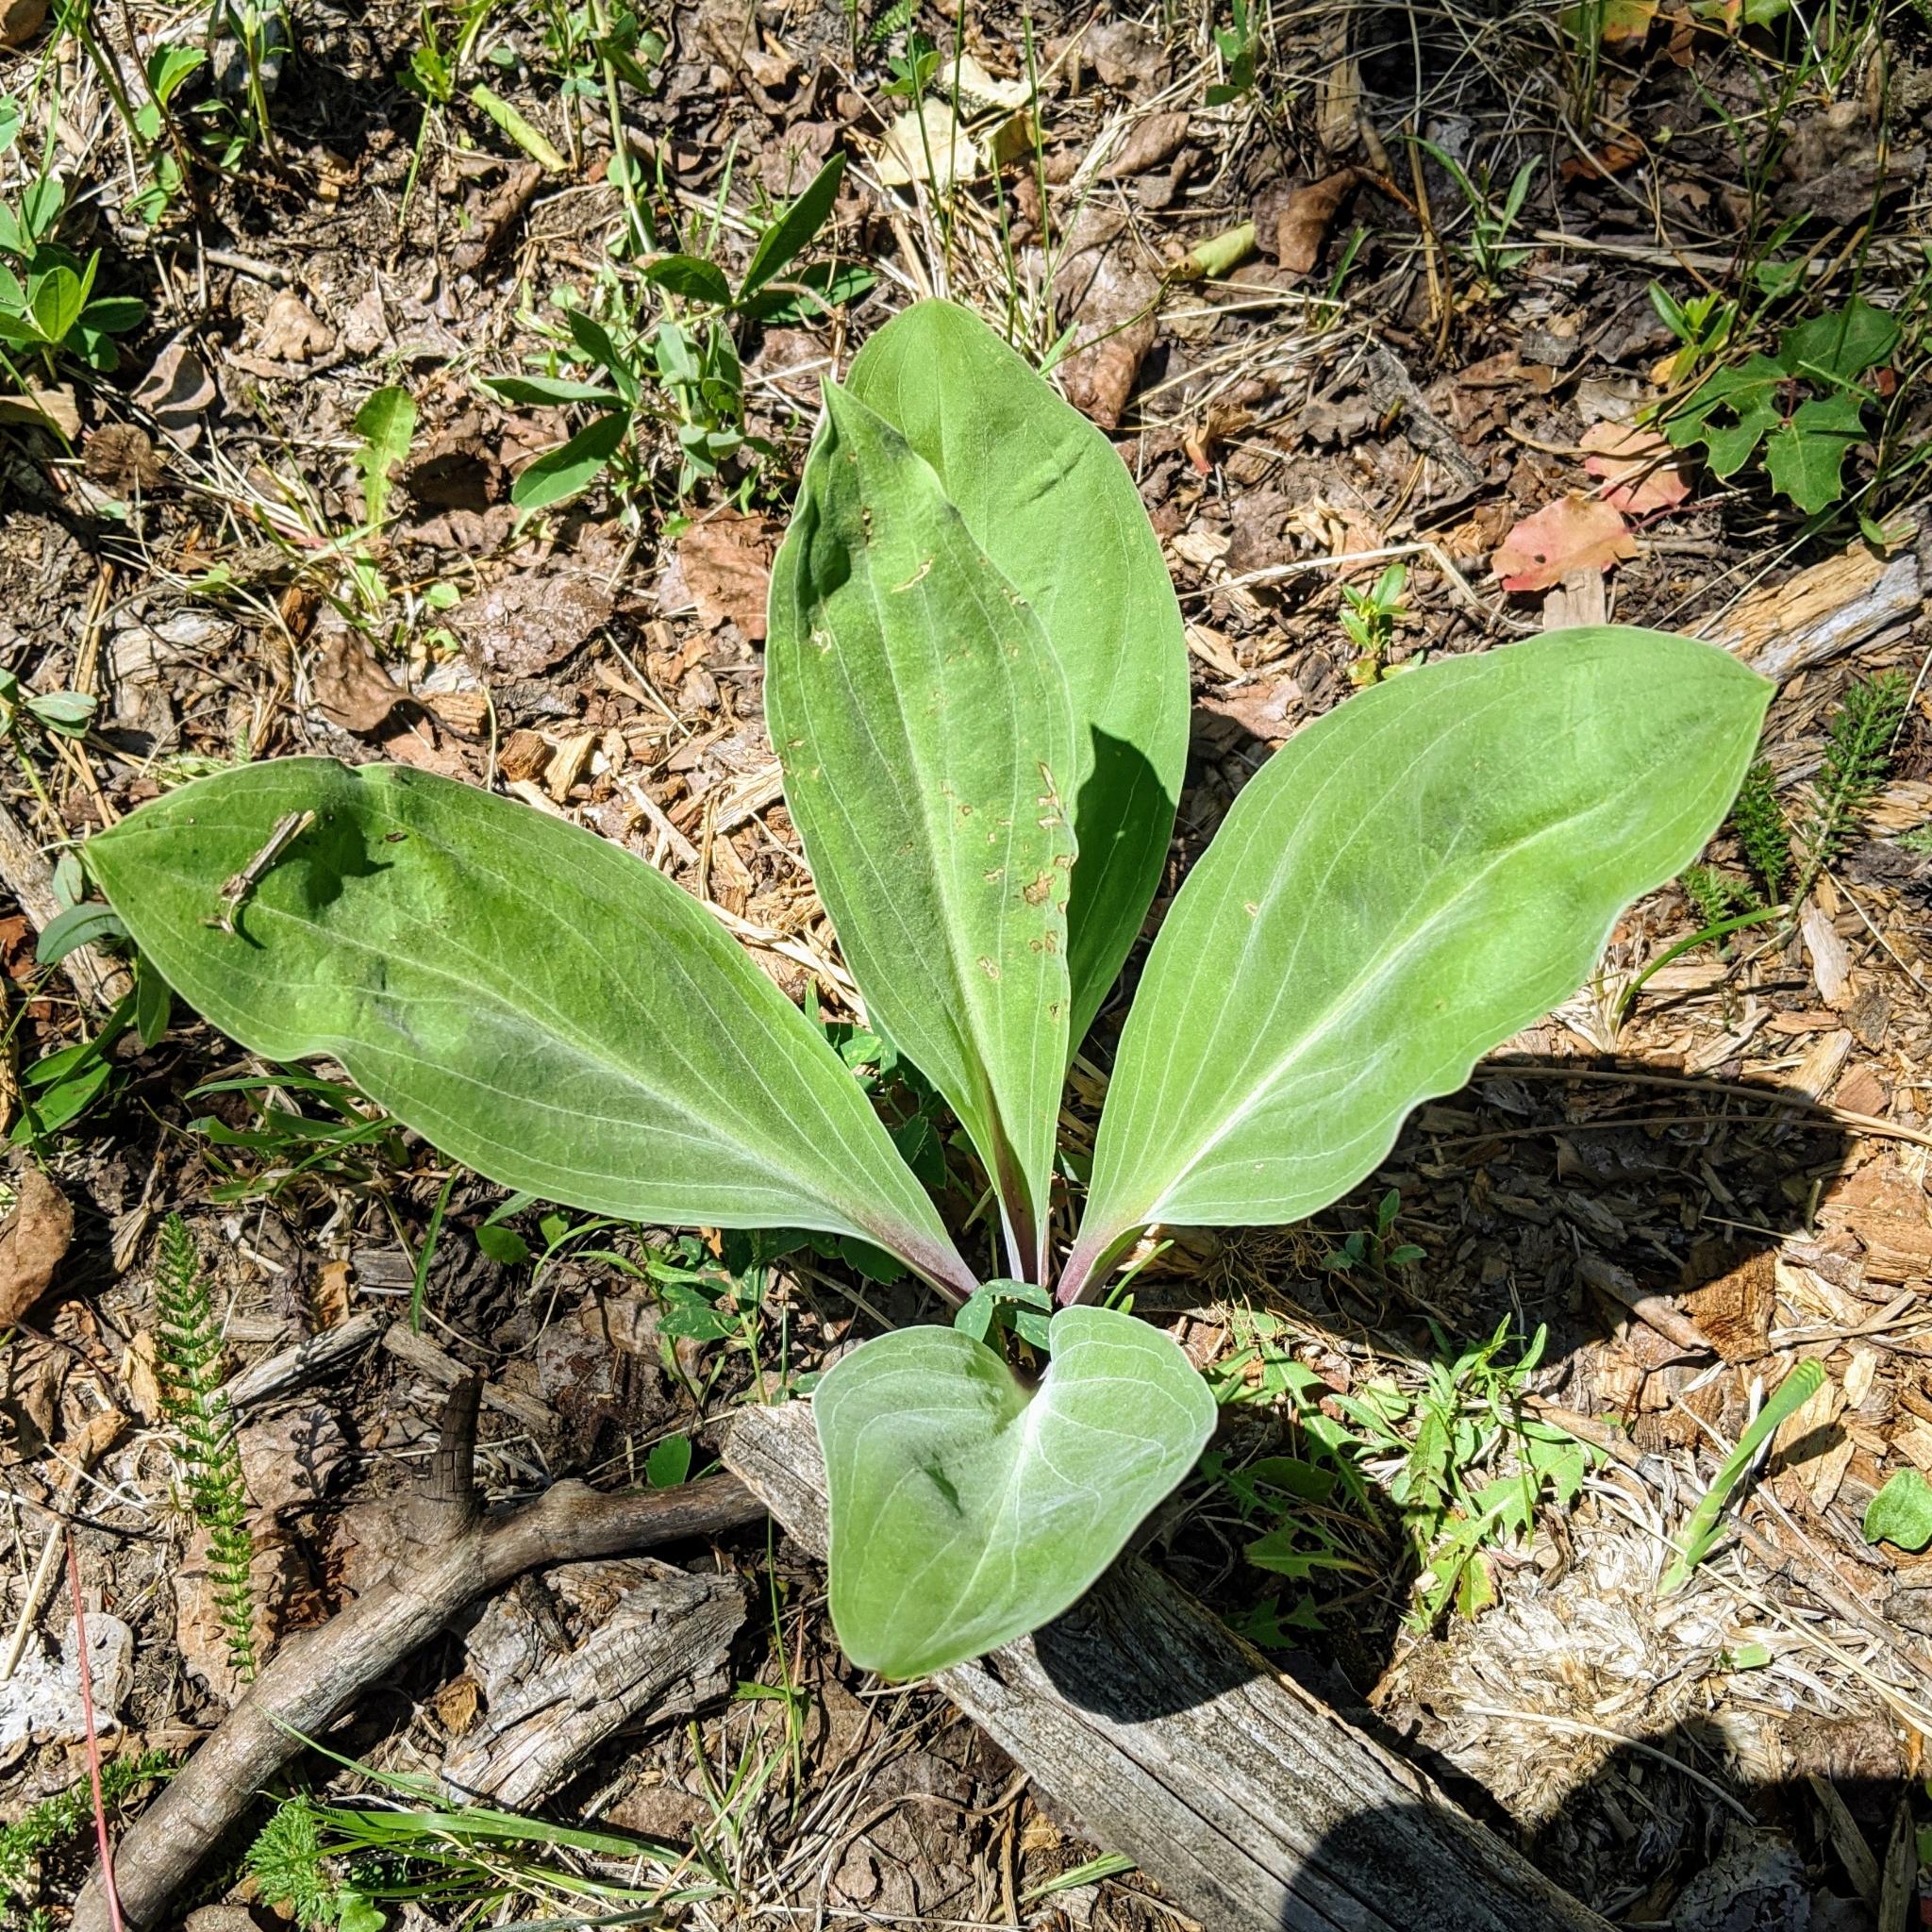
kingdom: Plantae
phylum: Tracheophyta
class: Magnoliopsida
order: Gentianales
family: Gentianaceae
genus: Frasera
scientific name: Frasera speciosa
